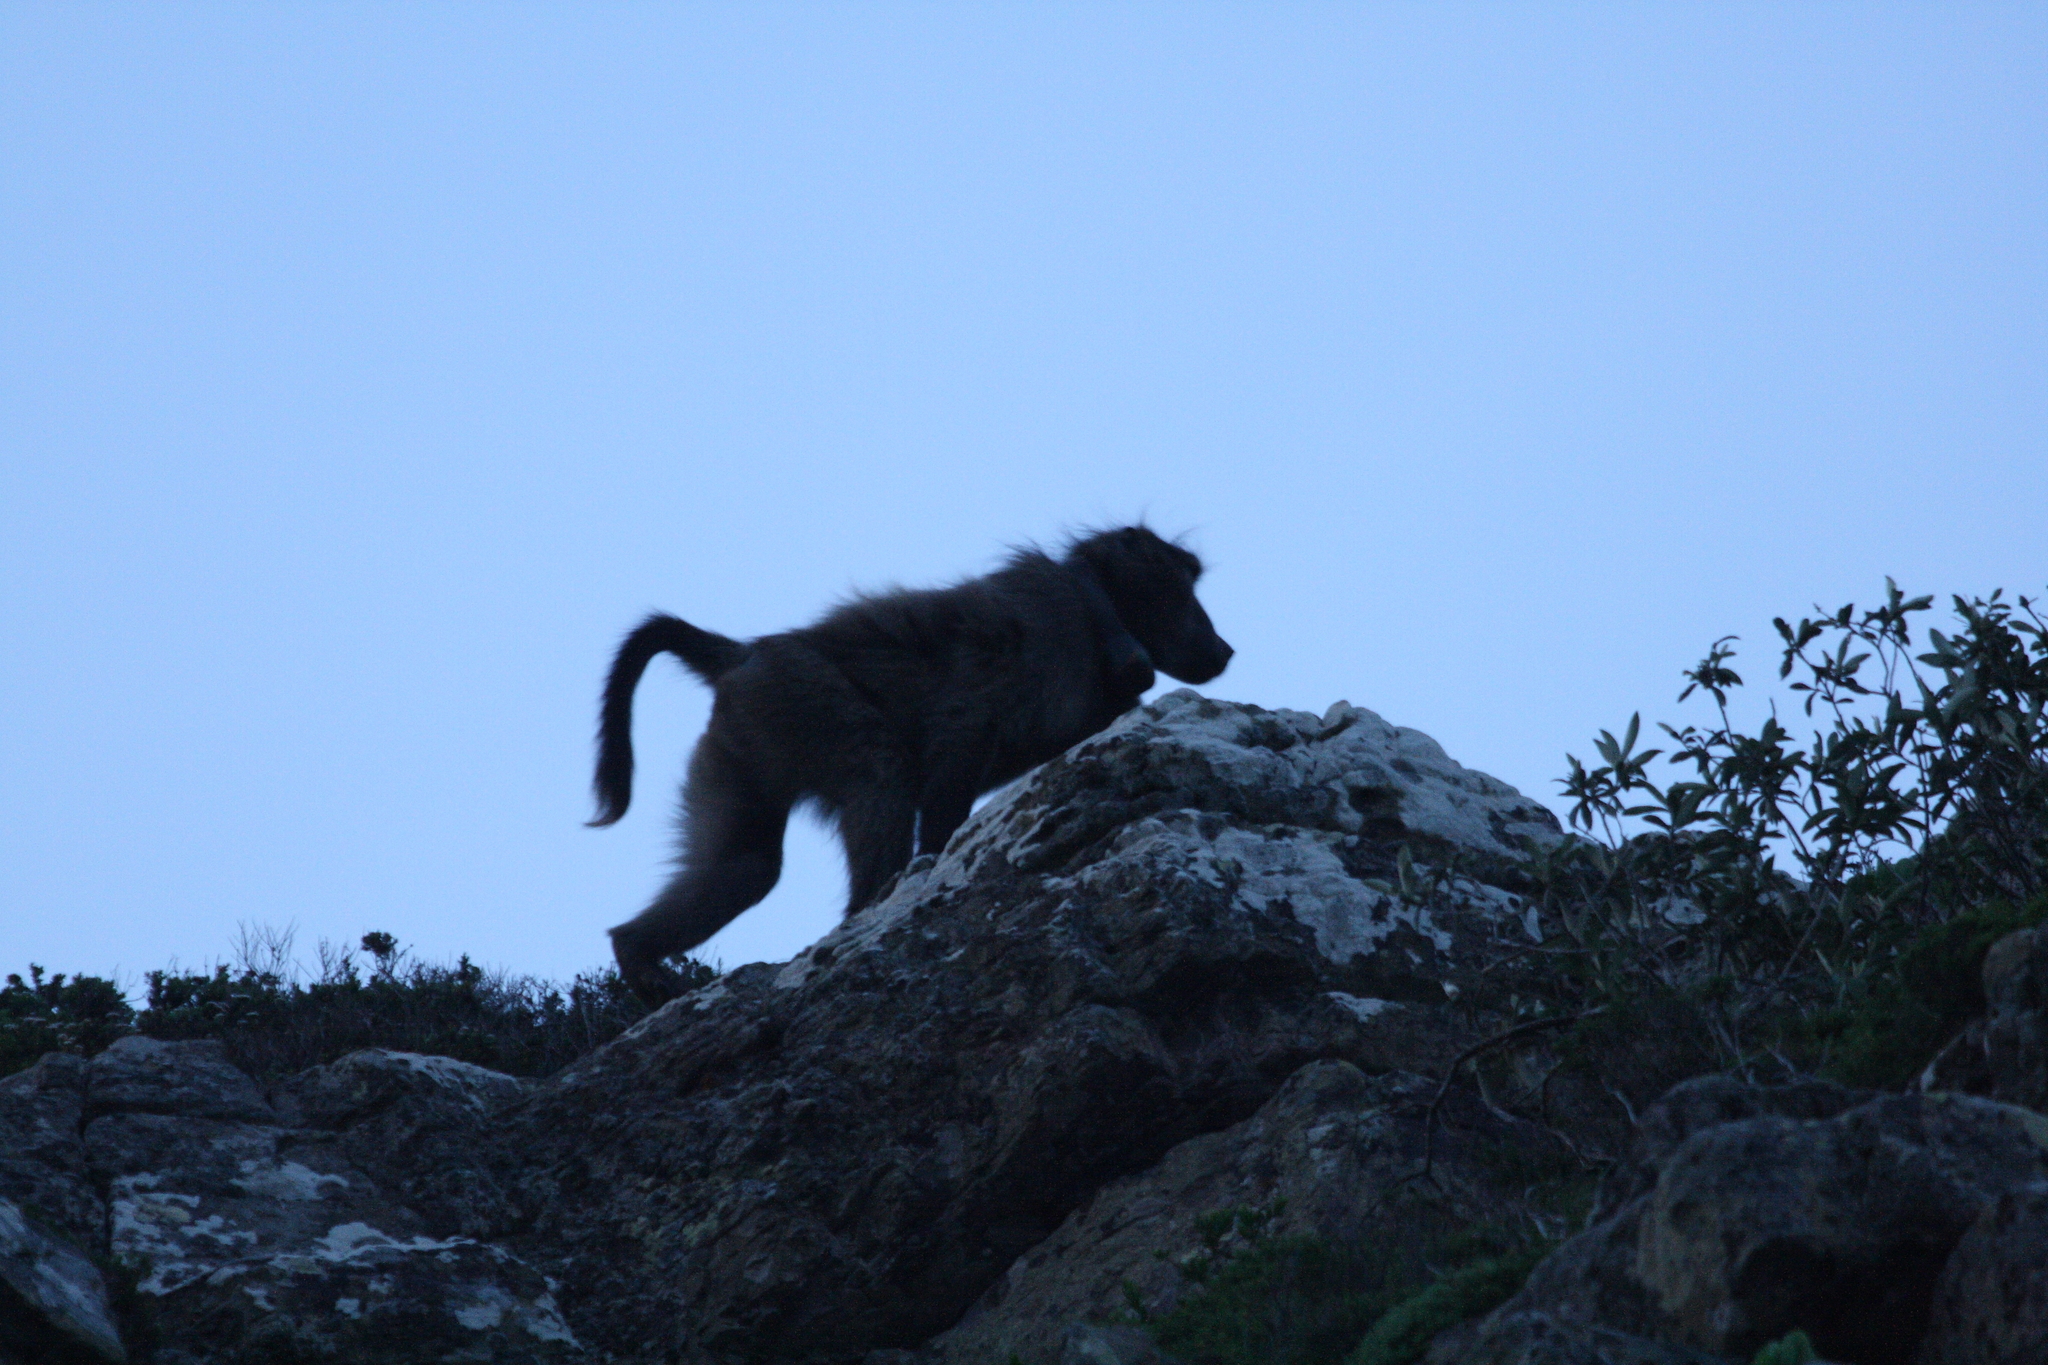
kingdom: Animalia
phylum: Chordata
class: Mammalia
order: Primates
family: Cercopithecidae
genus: Papio
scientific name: Papio ursinus
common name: Chacma baboon
